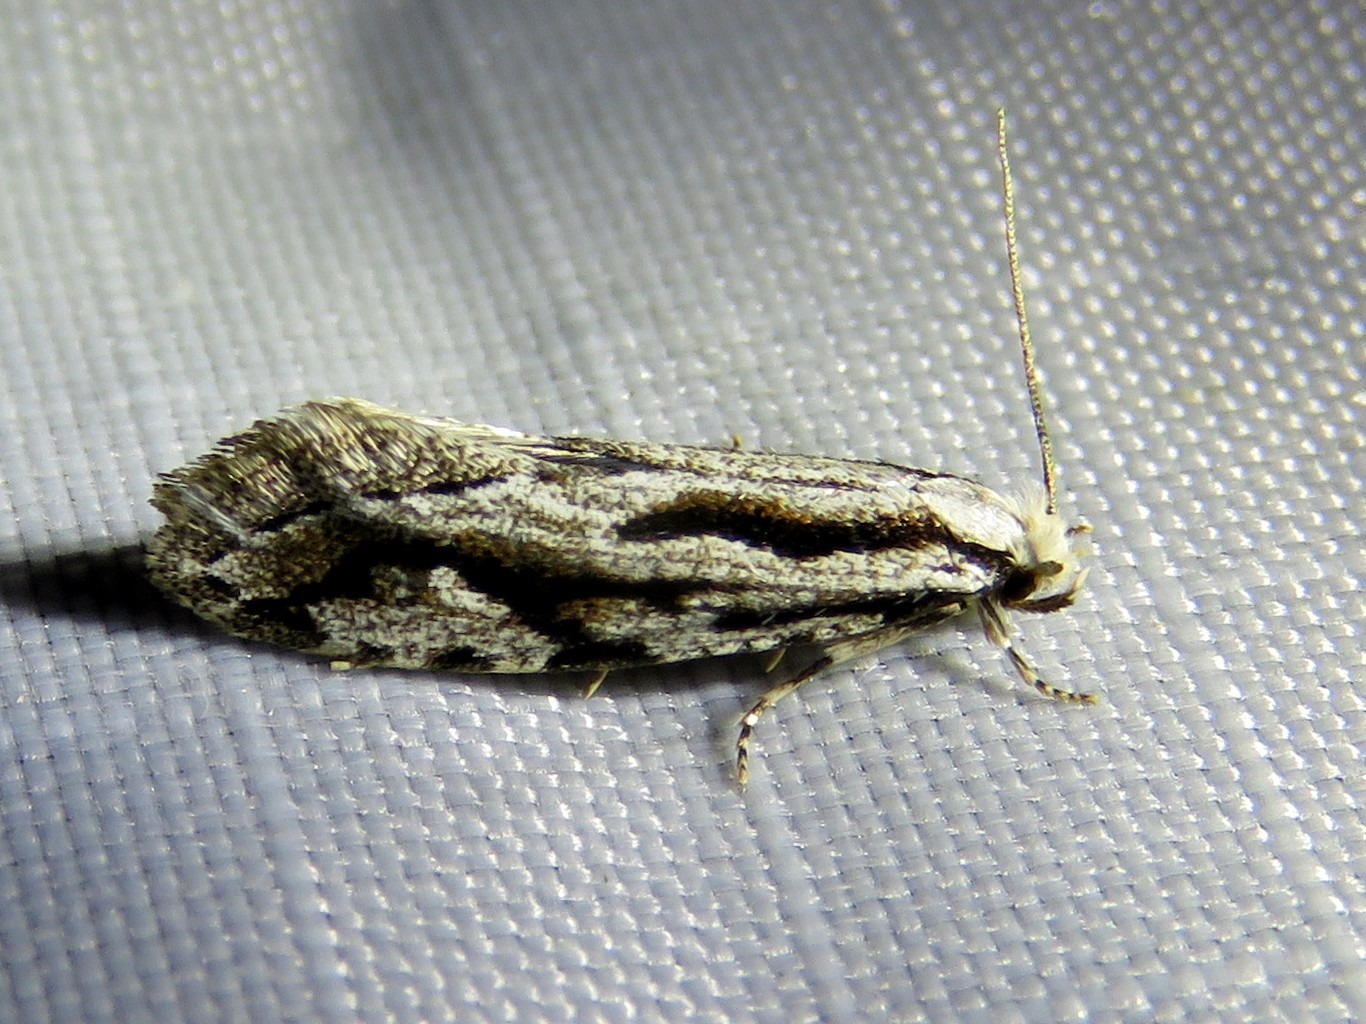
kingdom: Animalia
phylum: Arthropoda
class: Insecta
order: Lepidoptera
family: Tineidae
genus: Archinemapogon
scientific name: Archinemapogon yildizae
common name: Large scotch clothes
